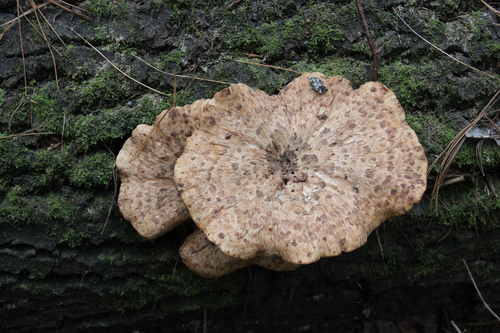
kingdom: Fungi
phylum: Basidiomycota
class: Agaricomycetes
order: Polyporales
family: Polyporaceae
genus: Cerioporus
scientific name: Cerioporus squamosus
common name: Dryad's saddle
